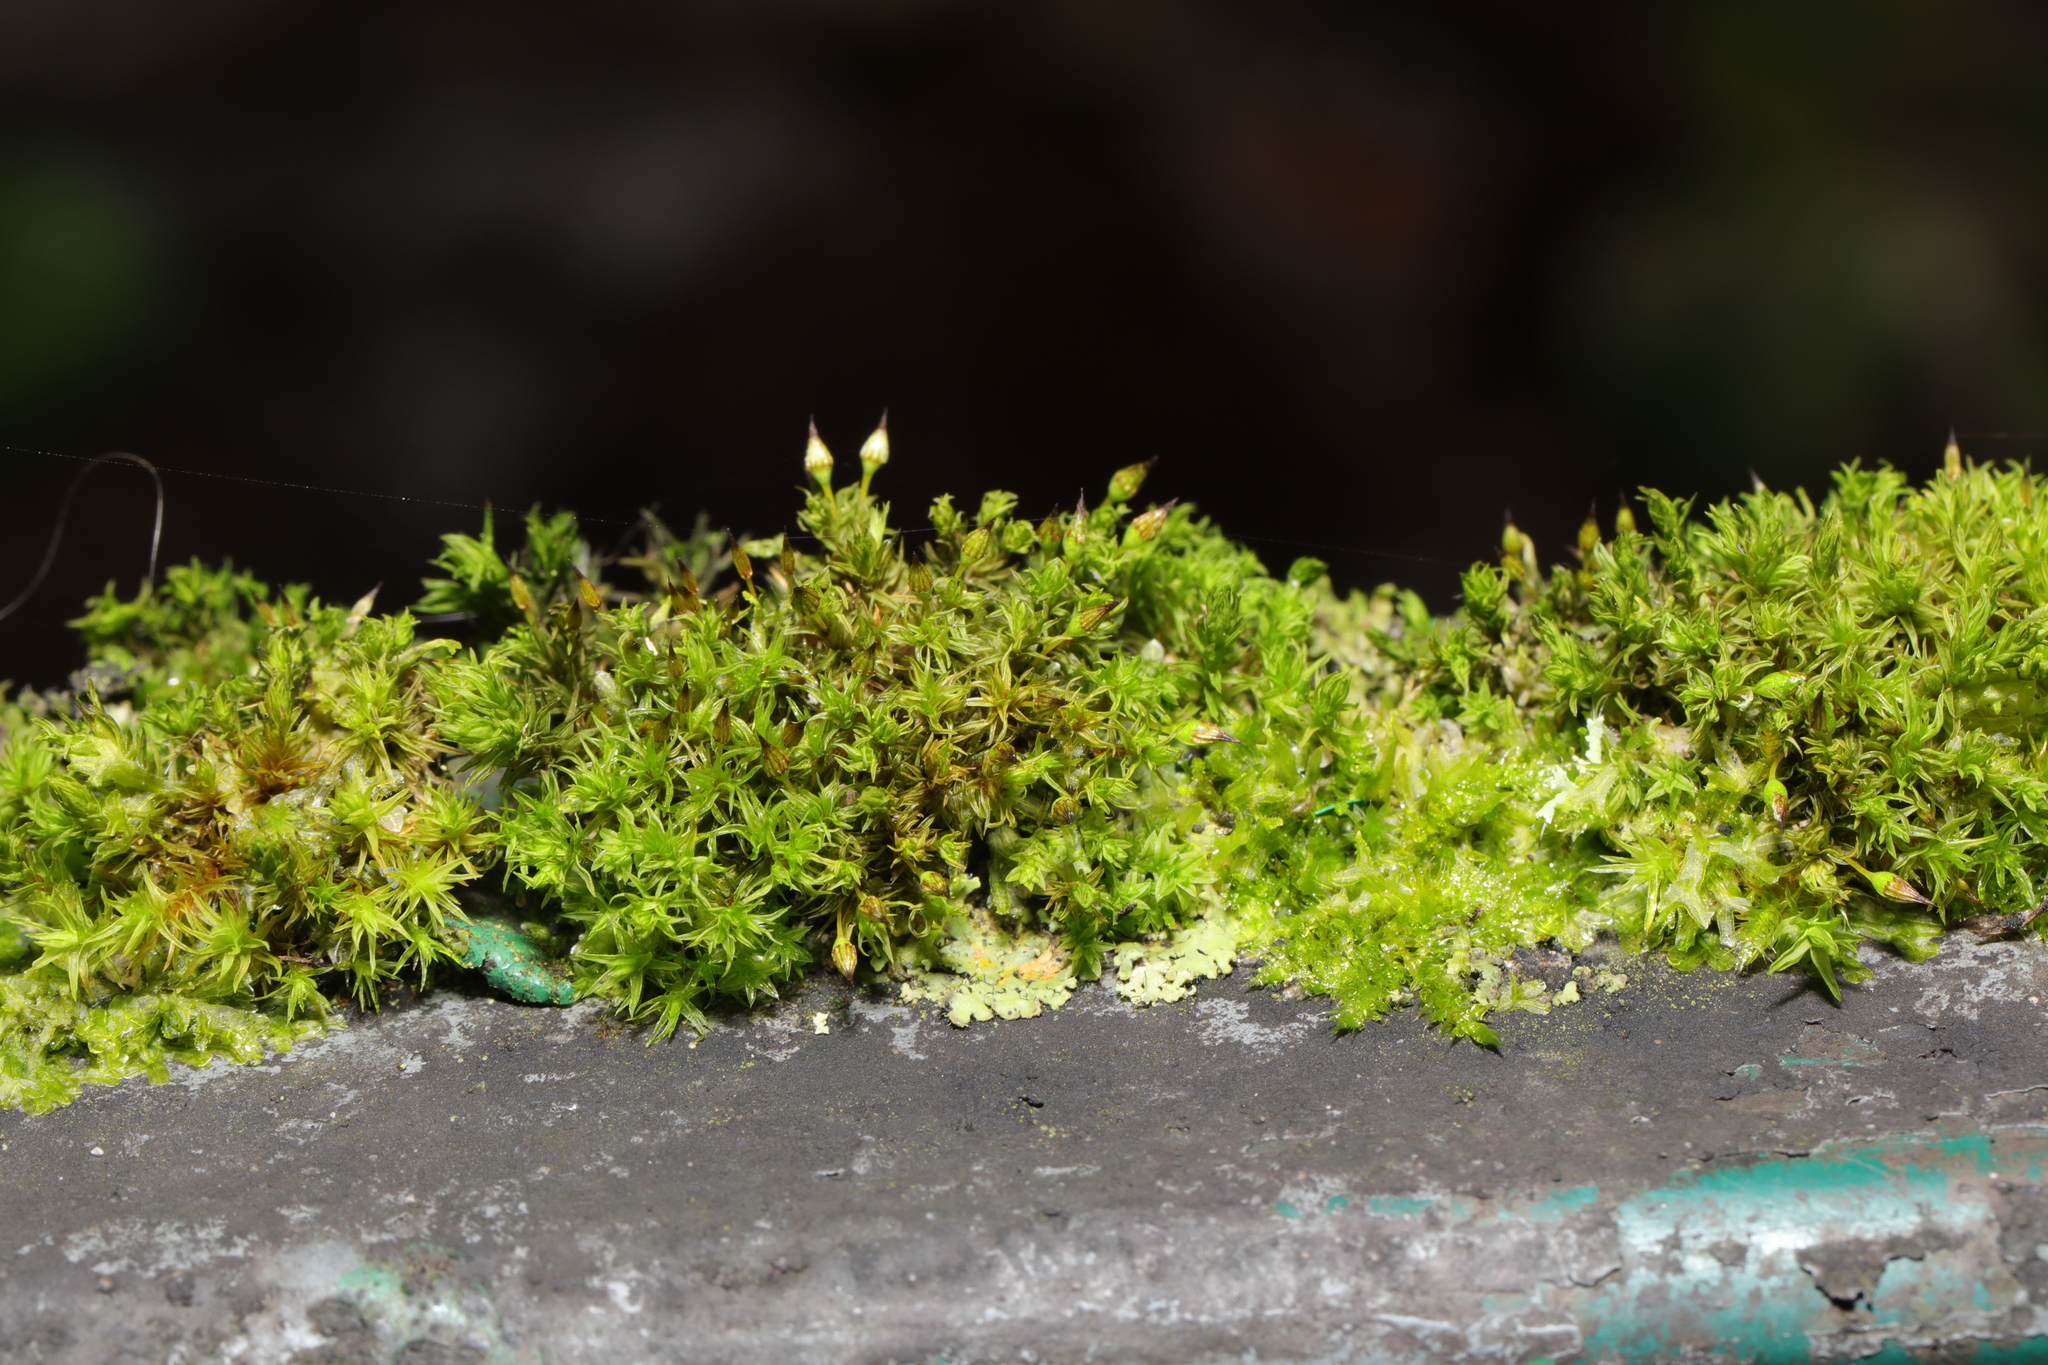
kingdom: Plantae
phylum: Bryophyta
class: Bryopsida
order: Orthotrichales
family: Orthotrichaceae
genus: Orthotrichum
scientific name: Orthotrichum pulchellum
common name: Elegant bristle-moss
